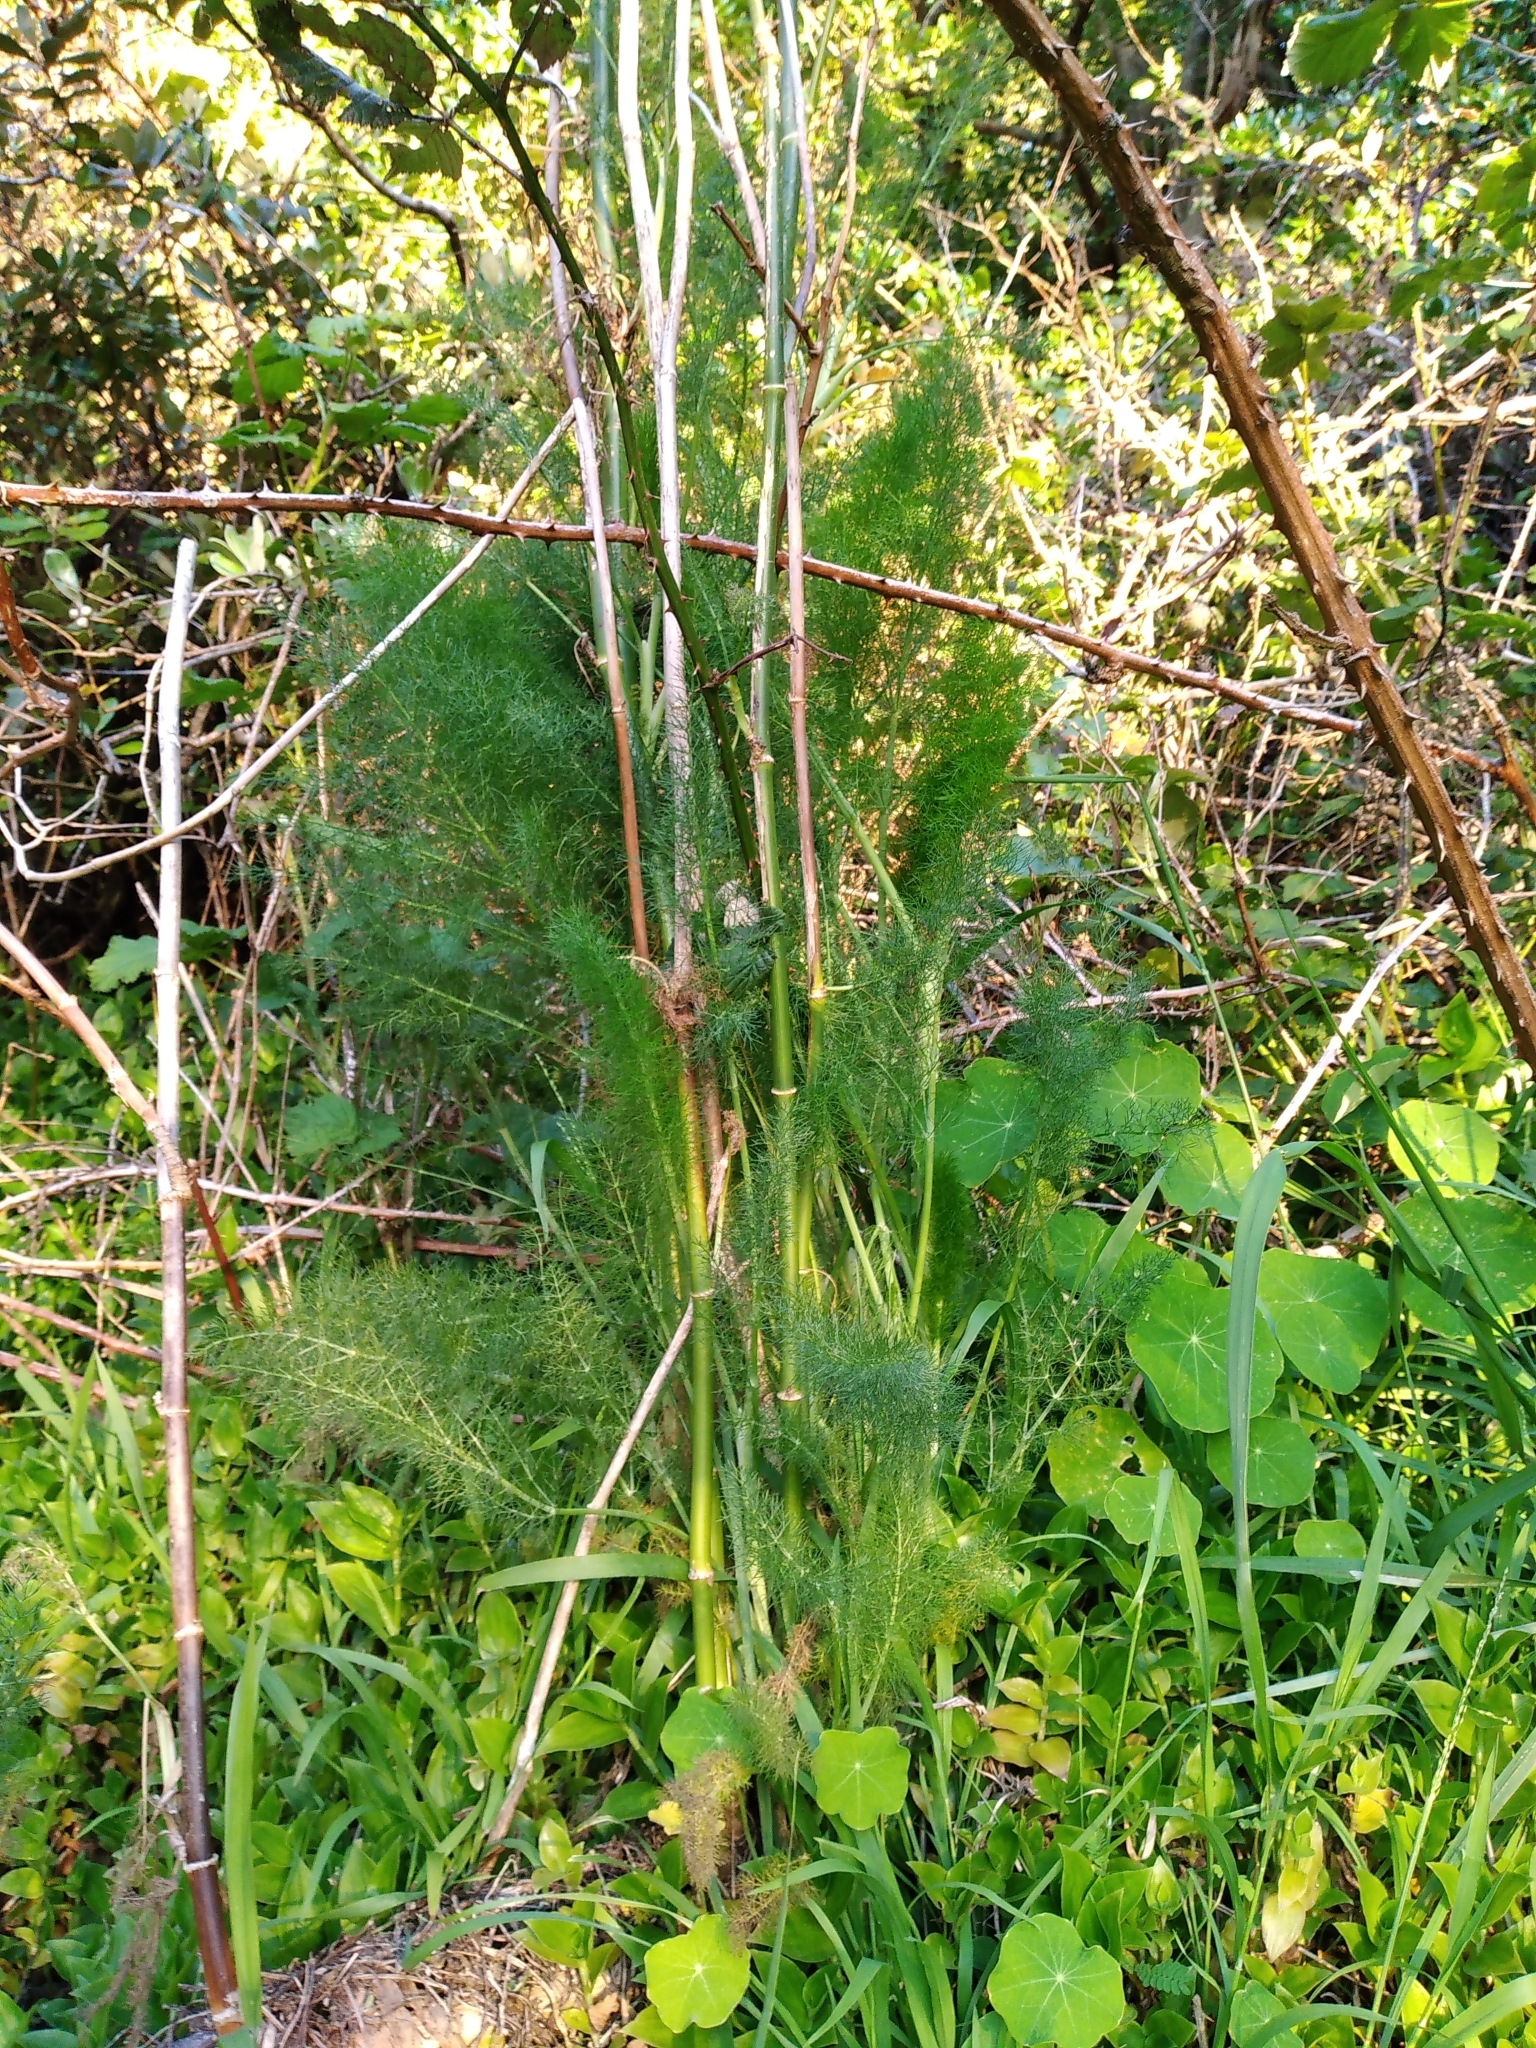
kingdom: Plantae
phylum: Tracheophyta
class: Magnoliopsida
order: Apiales
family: Apiaceae
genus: Foeniculum
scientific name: Foeniculum vulgare
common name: Fennel
